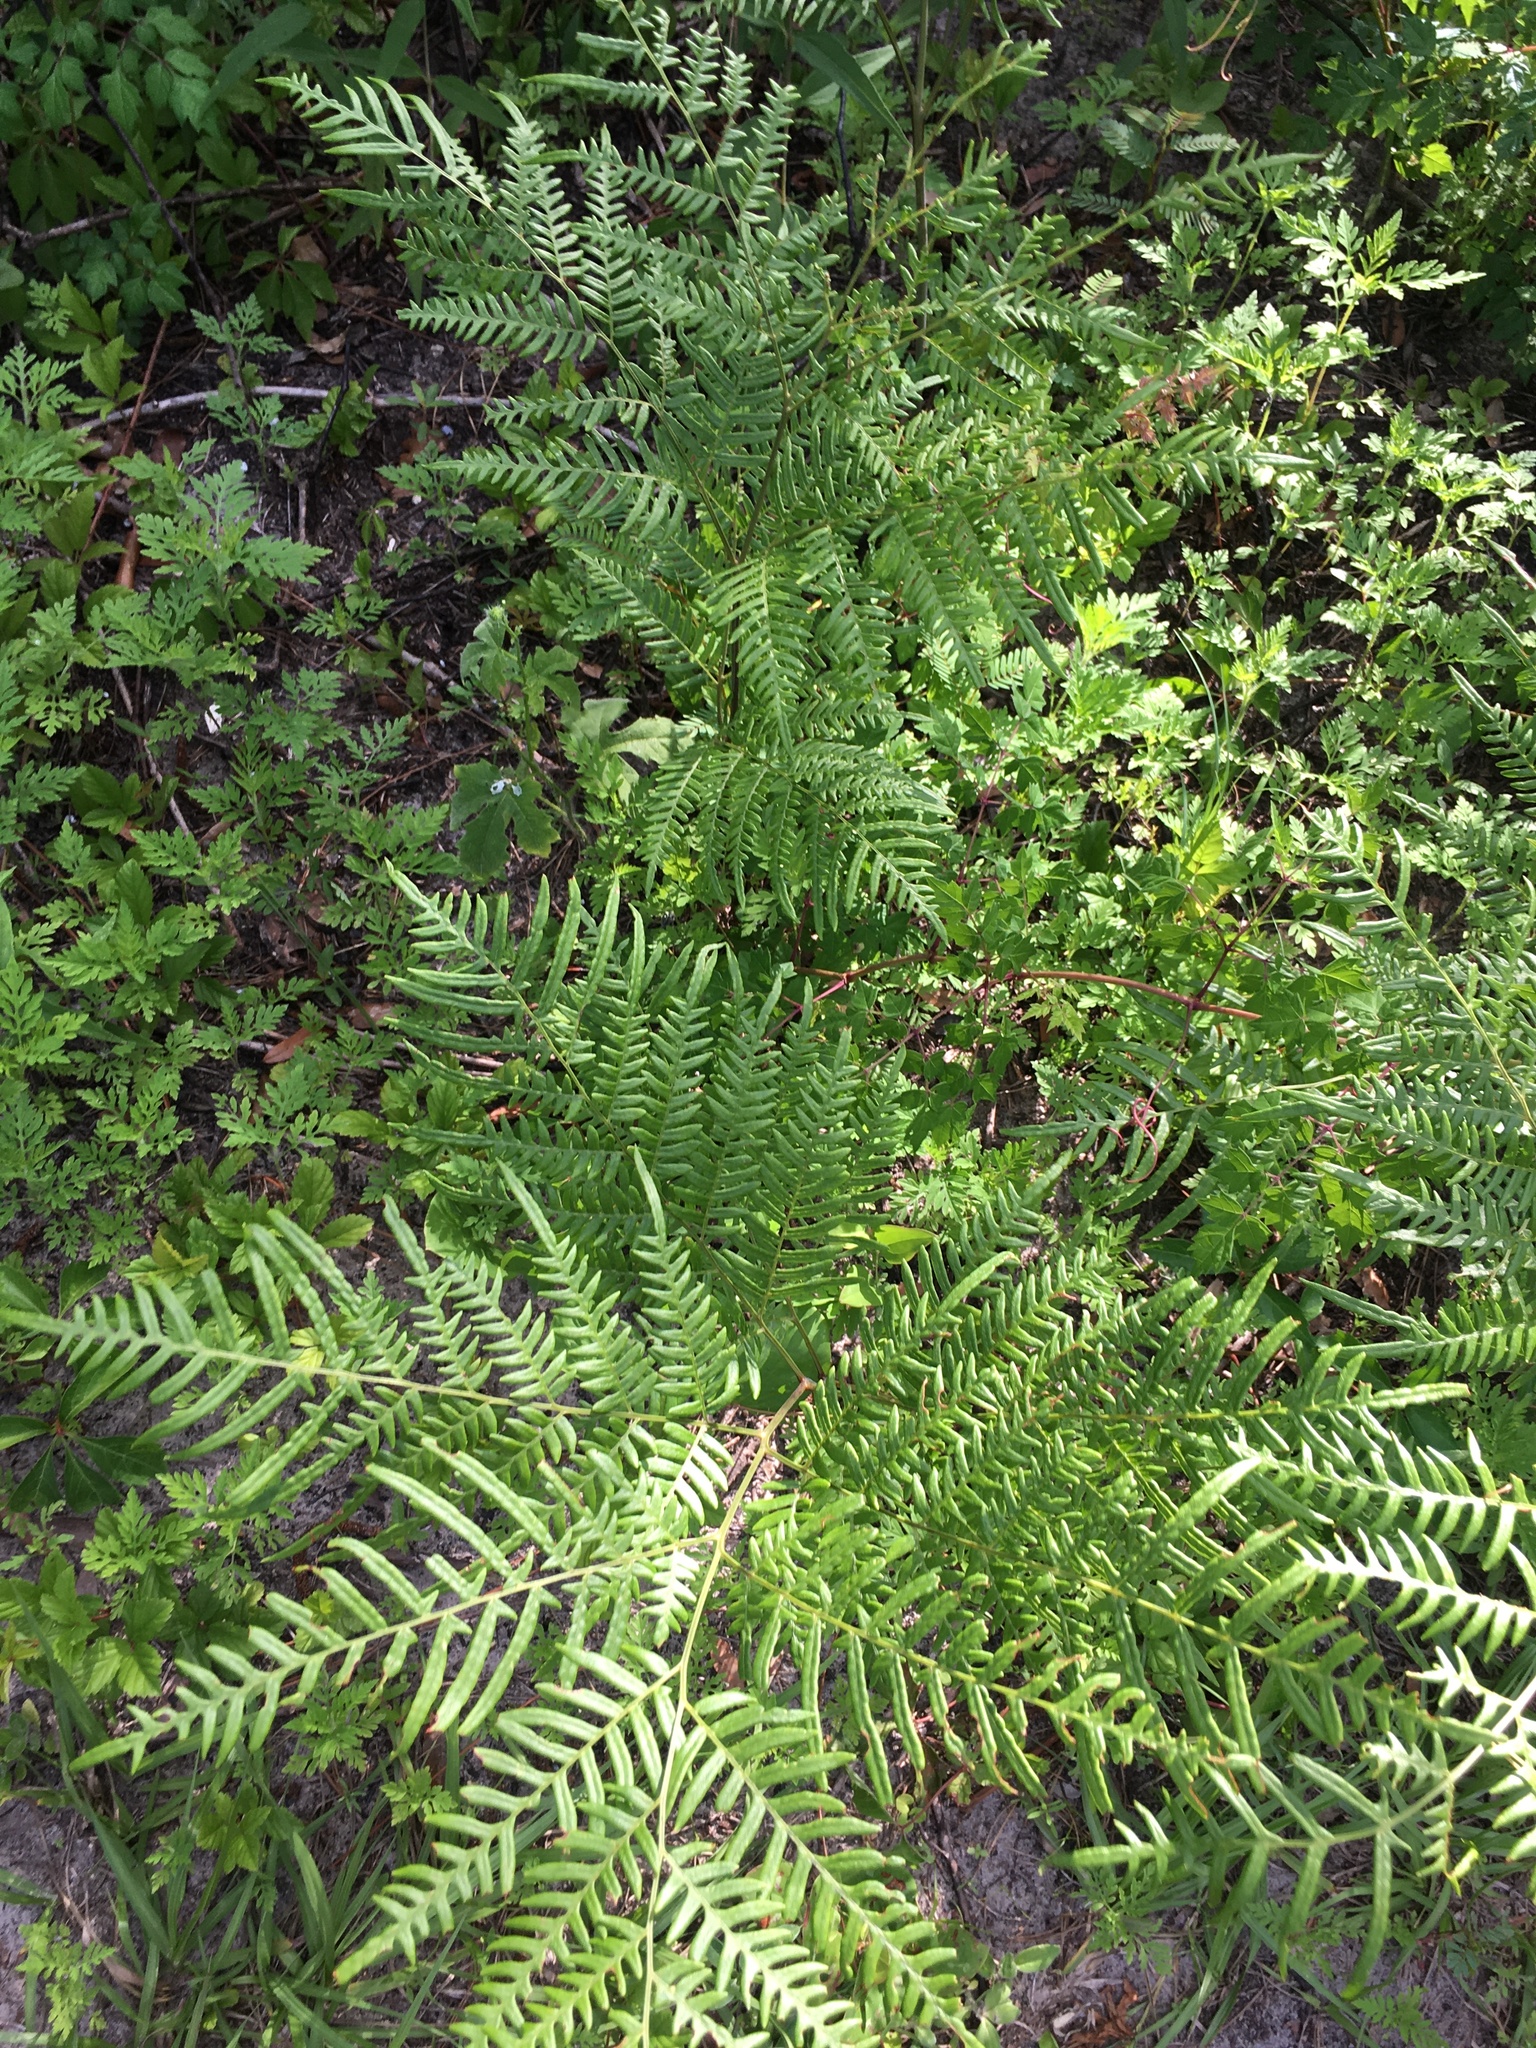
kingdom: Plantae
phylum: Tracheophyta
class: Polypodiopsida
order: Polypodiales
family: Dennstaedtiaceae
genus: Pteridium
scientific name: Pteridium aquilinum
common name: Bracken
